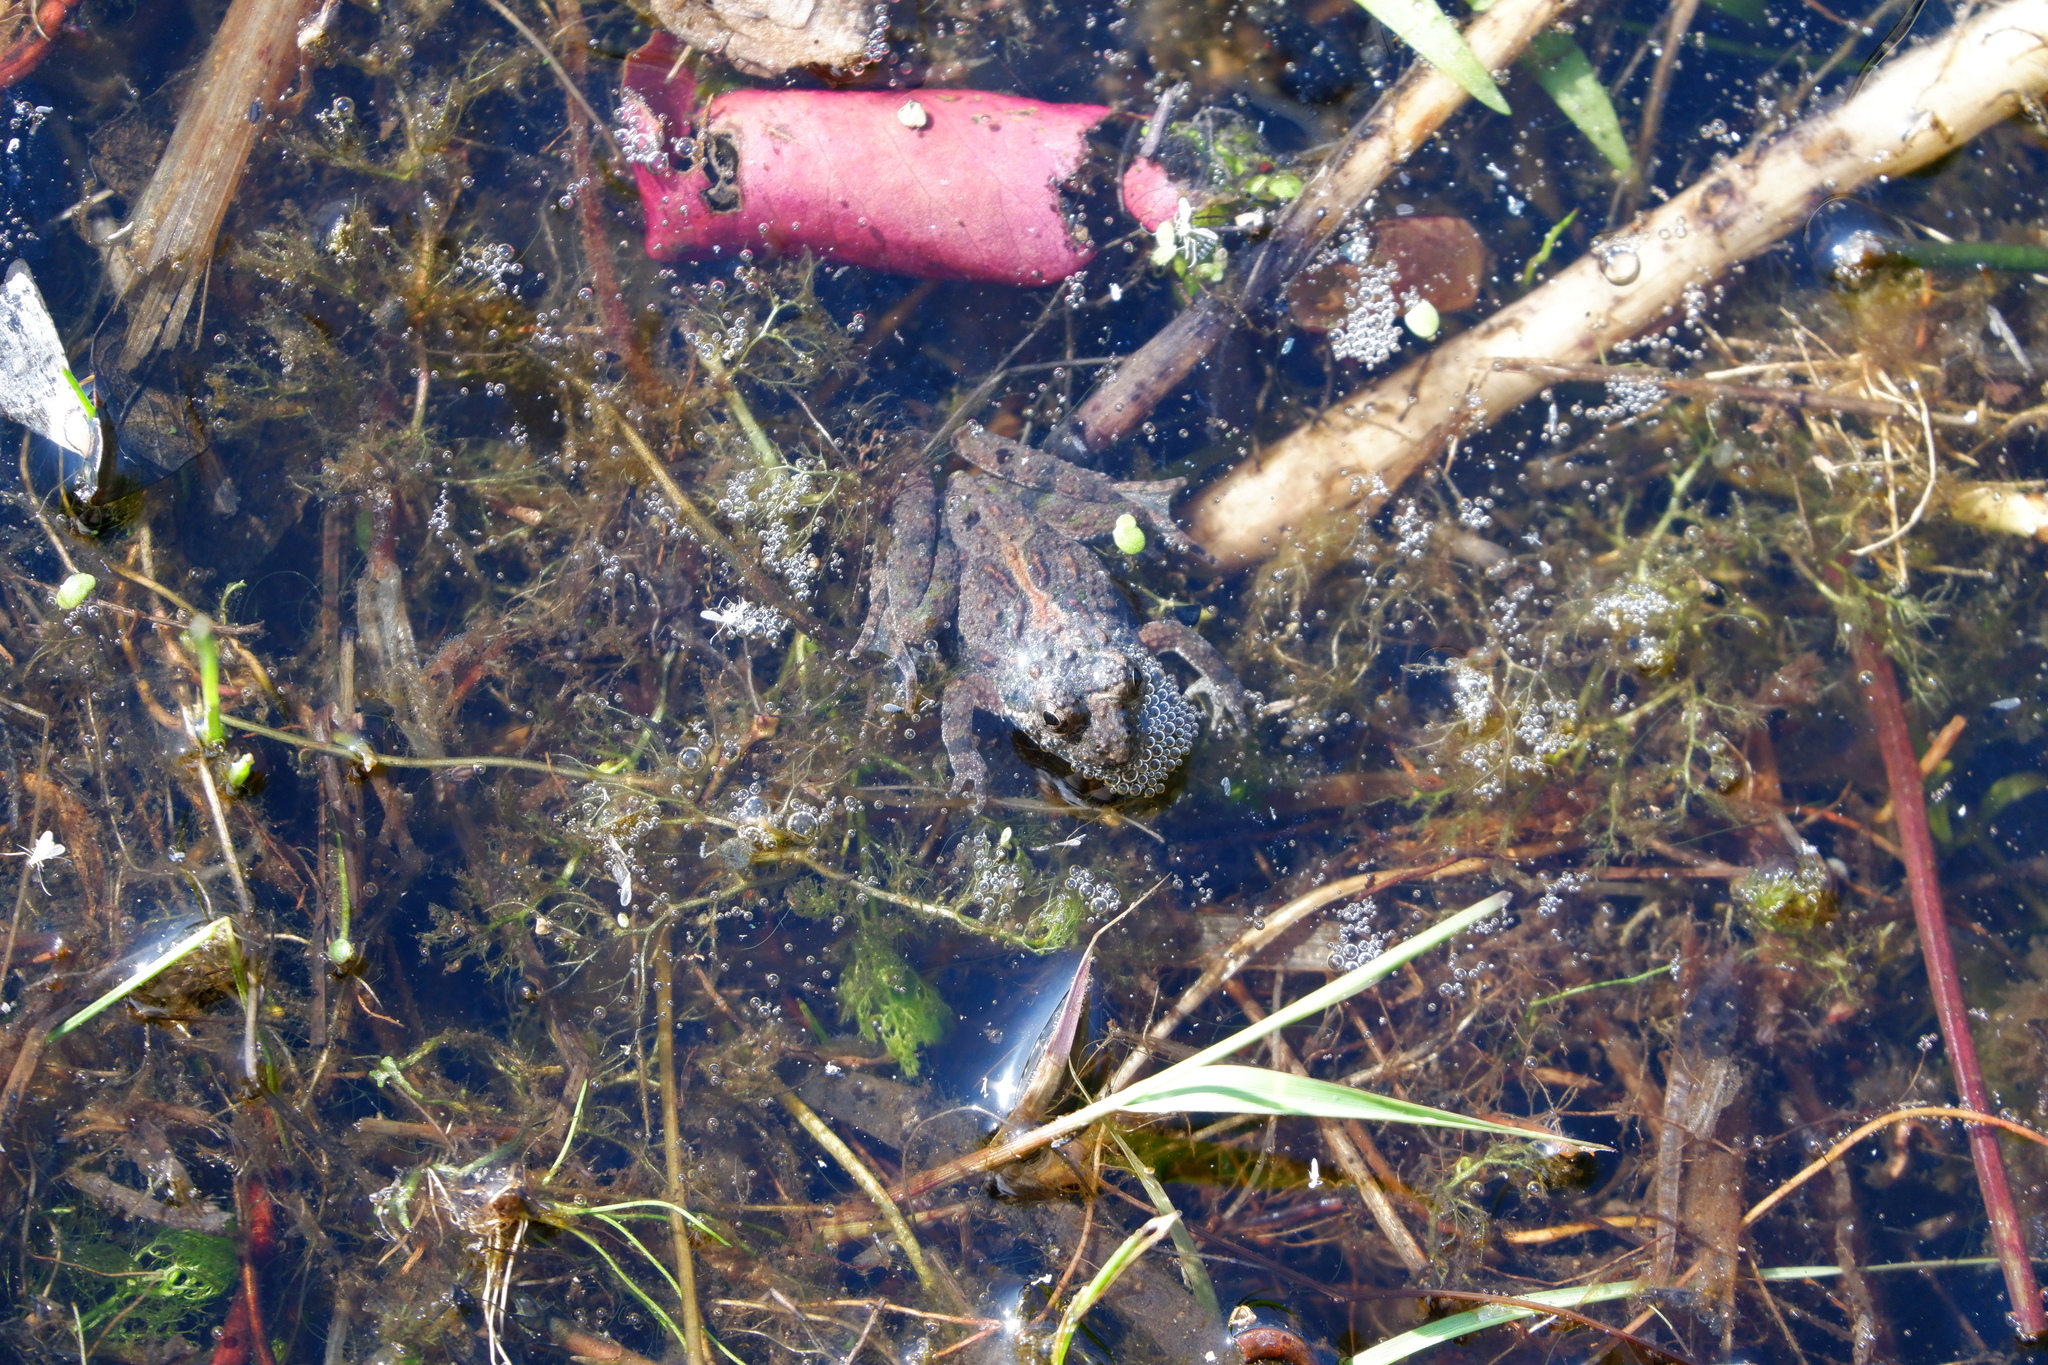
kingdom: Animalia
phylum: Chordata
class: Amphibia
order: Anura
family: Hylidae
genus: Acris
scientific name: Acris crepitans
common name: Northern cricket frog
